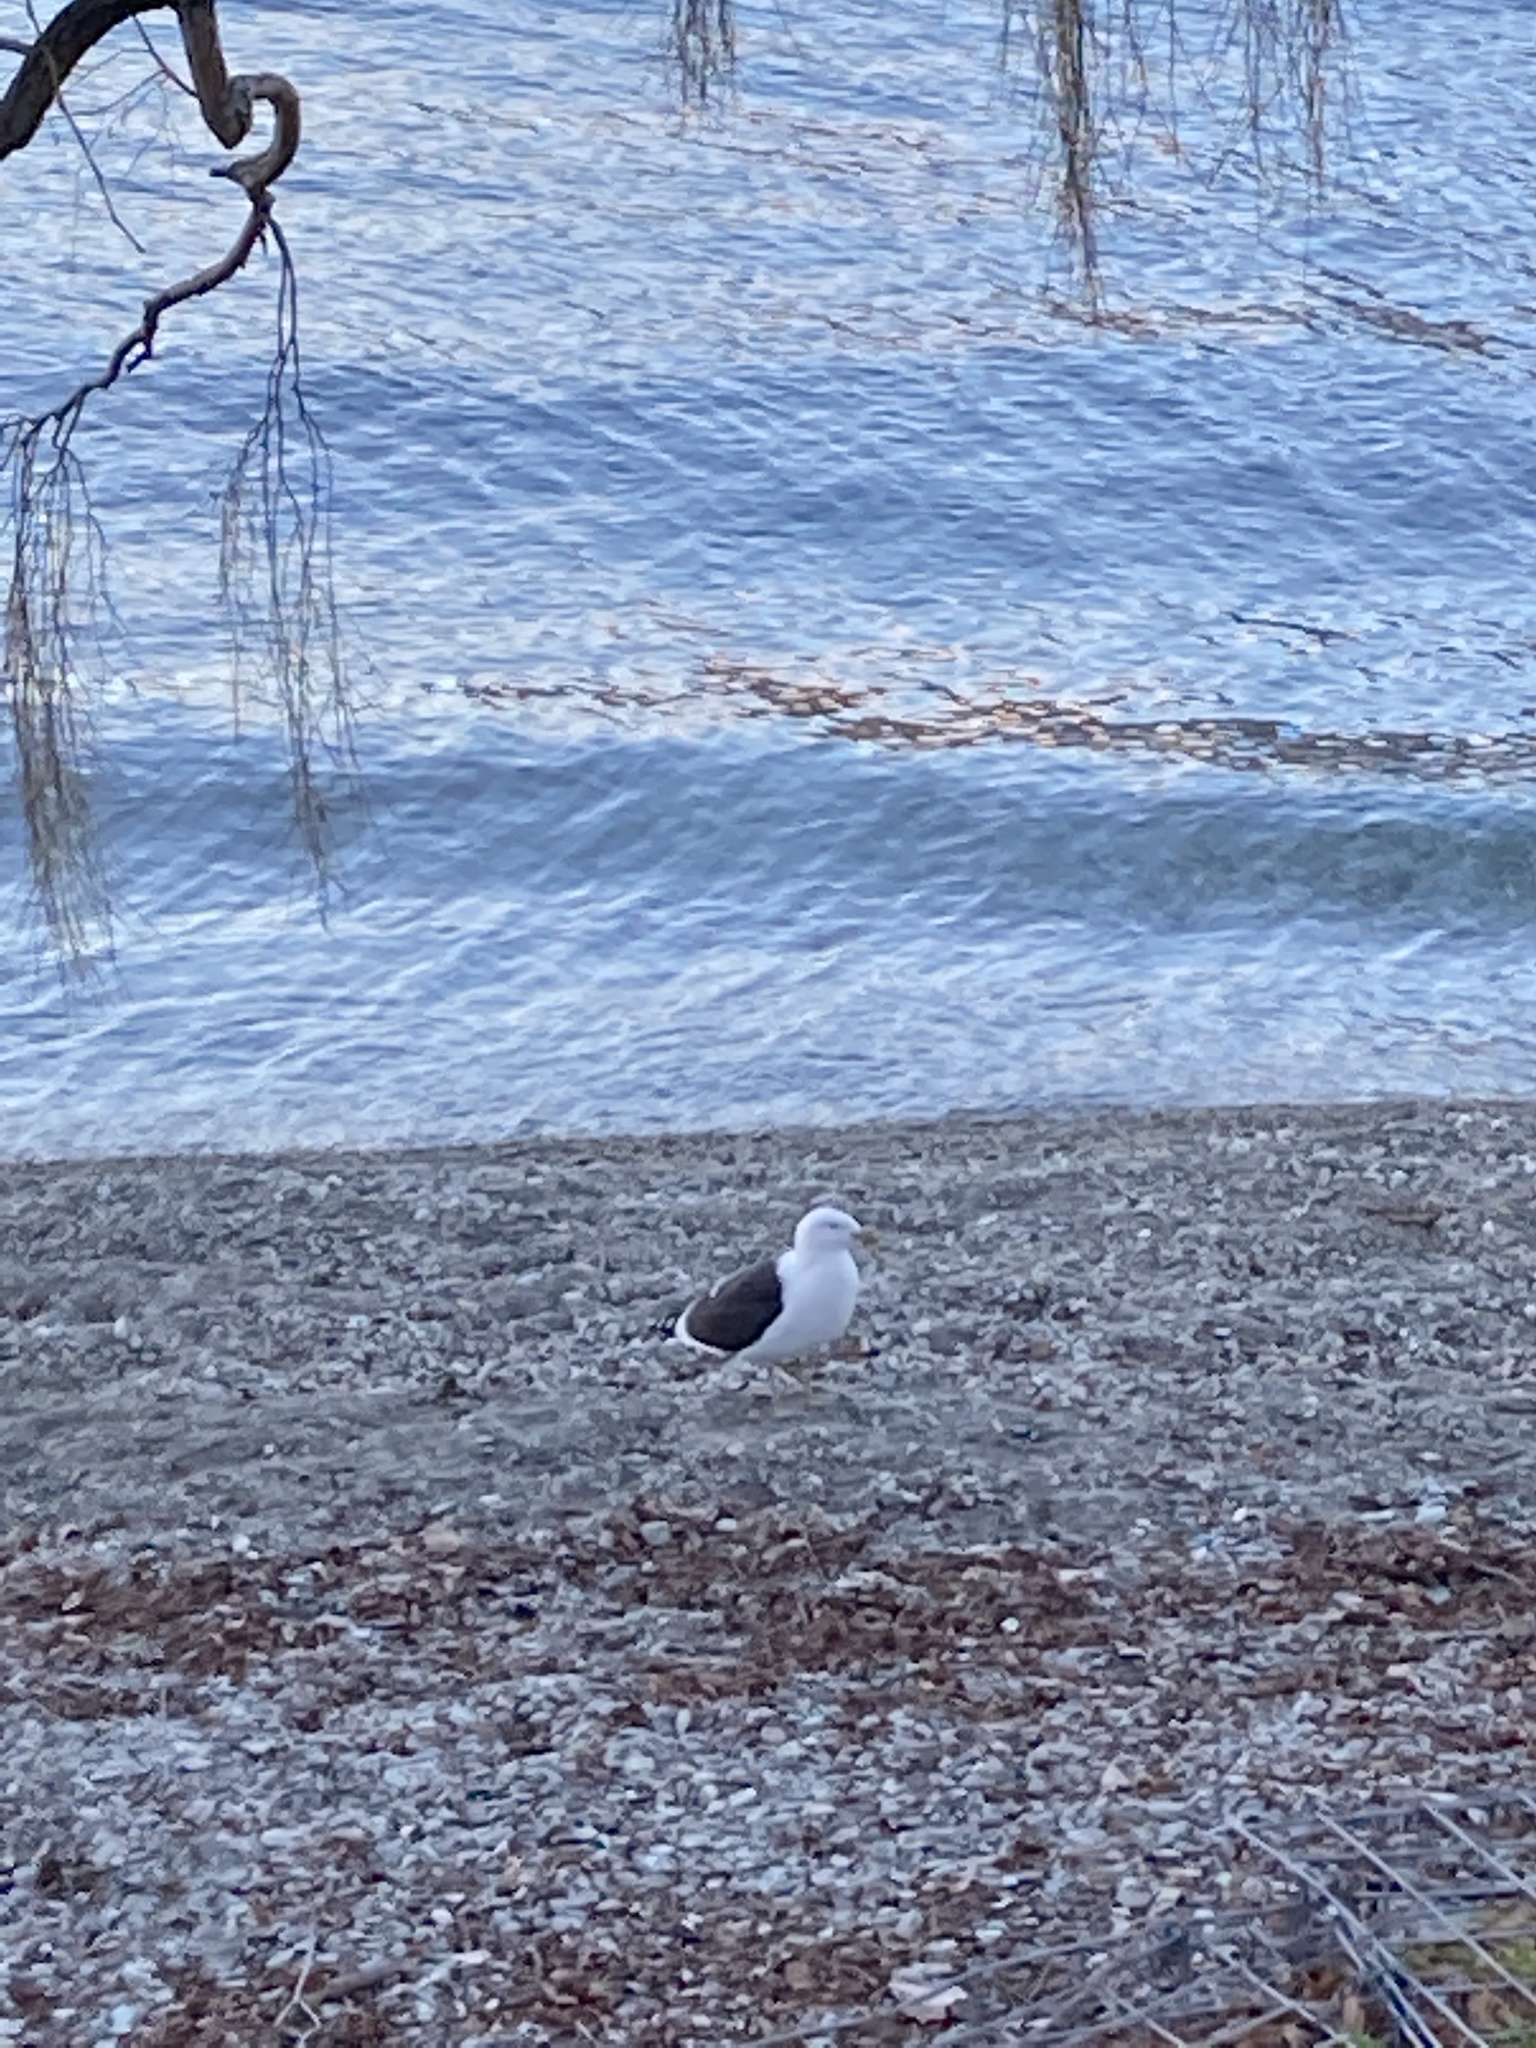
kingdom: Animalia
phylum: Chordata
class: Aves
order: Charadriiformes
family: Laridae
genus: Larus
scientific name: Larus dominicanus
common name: Kelp gull
